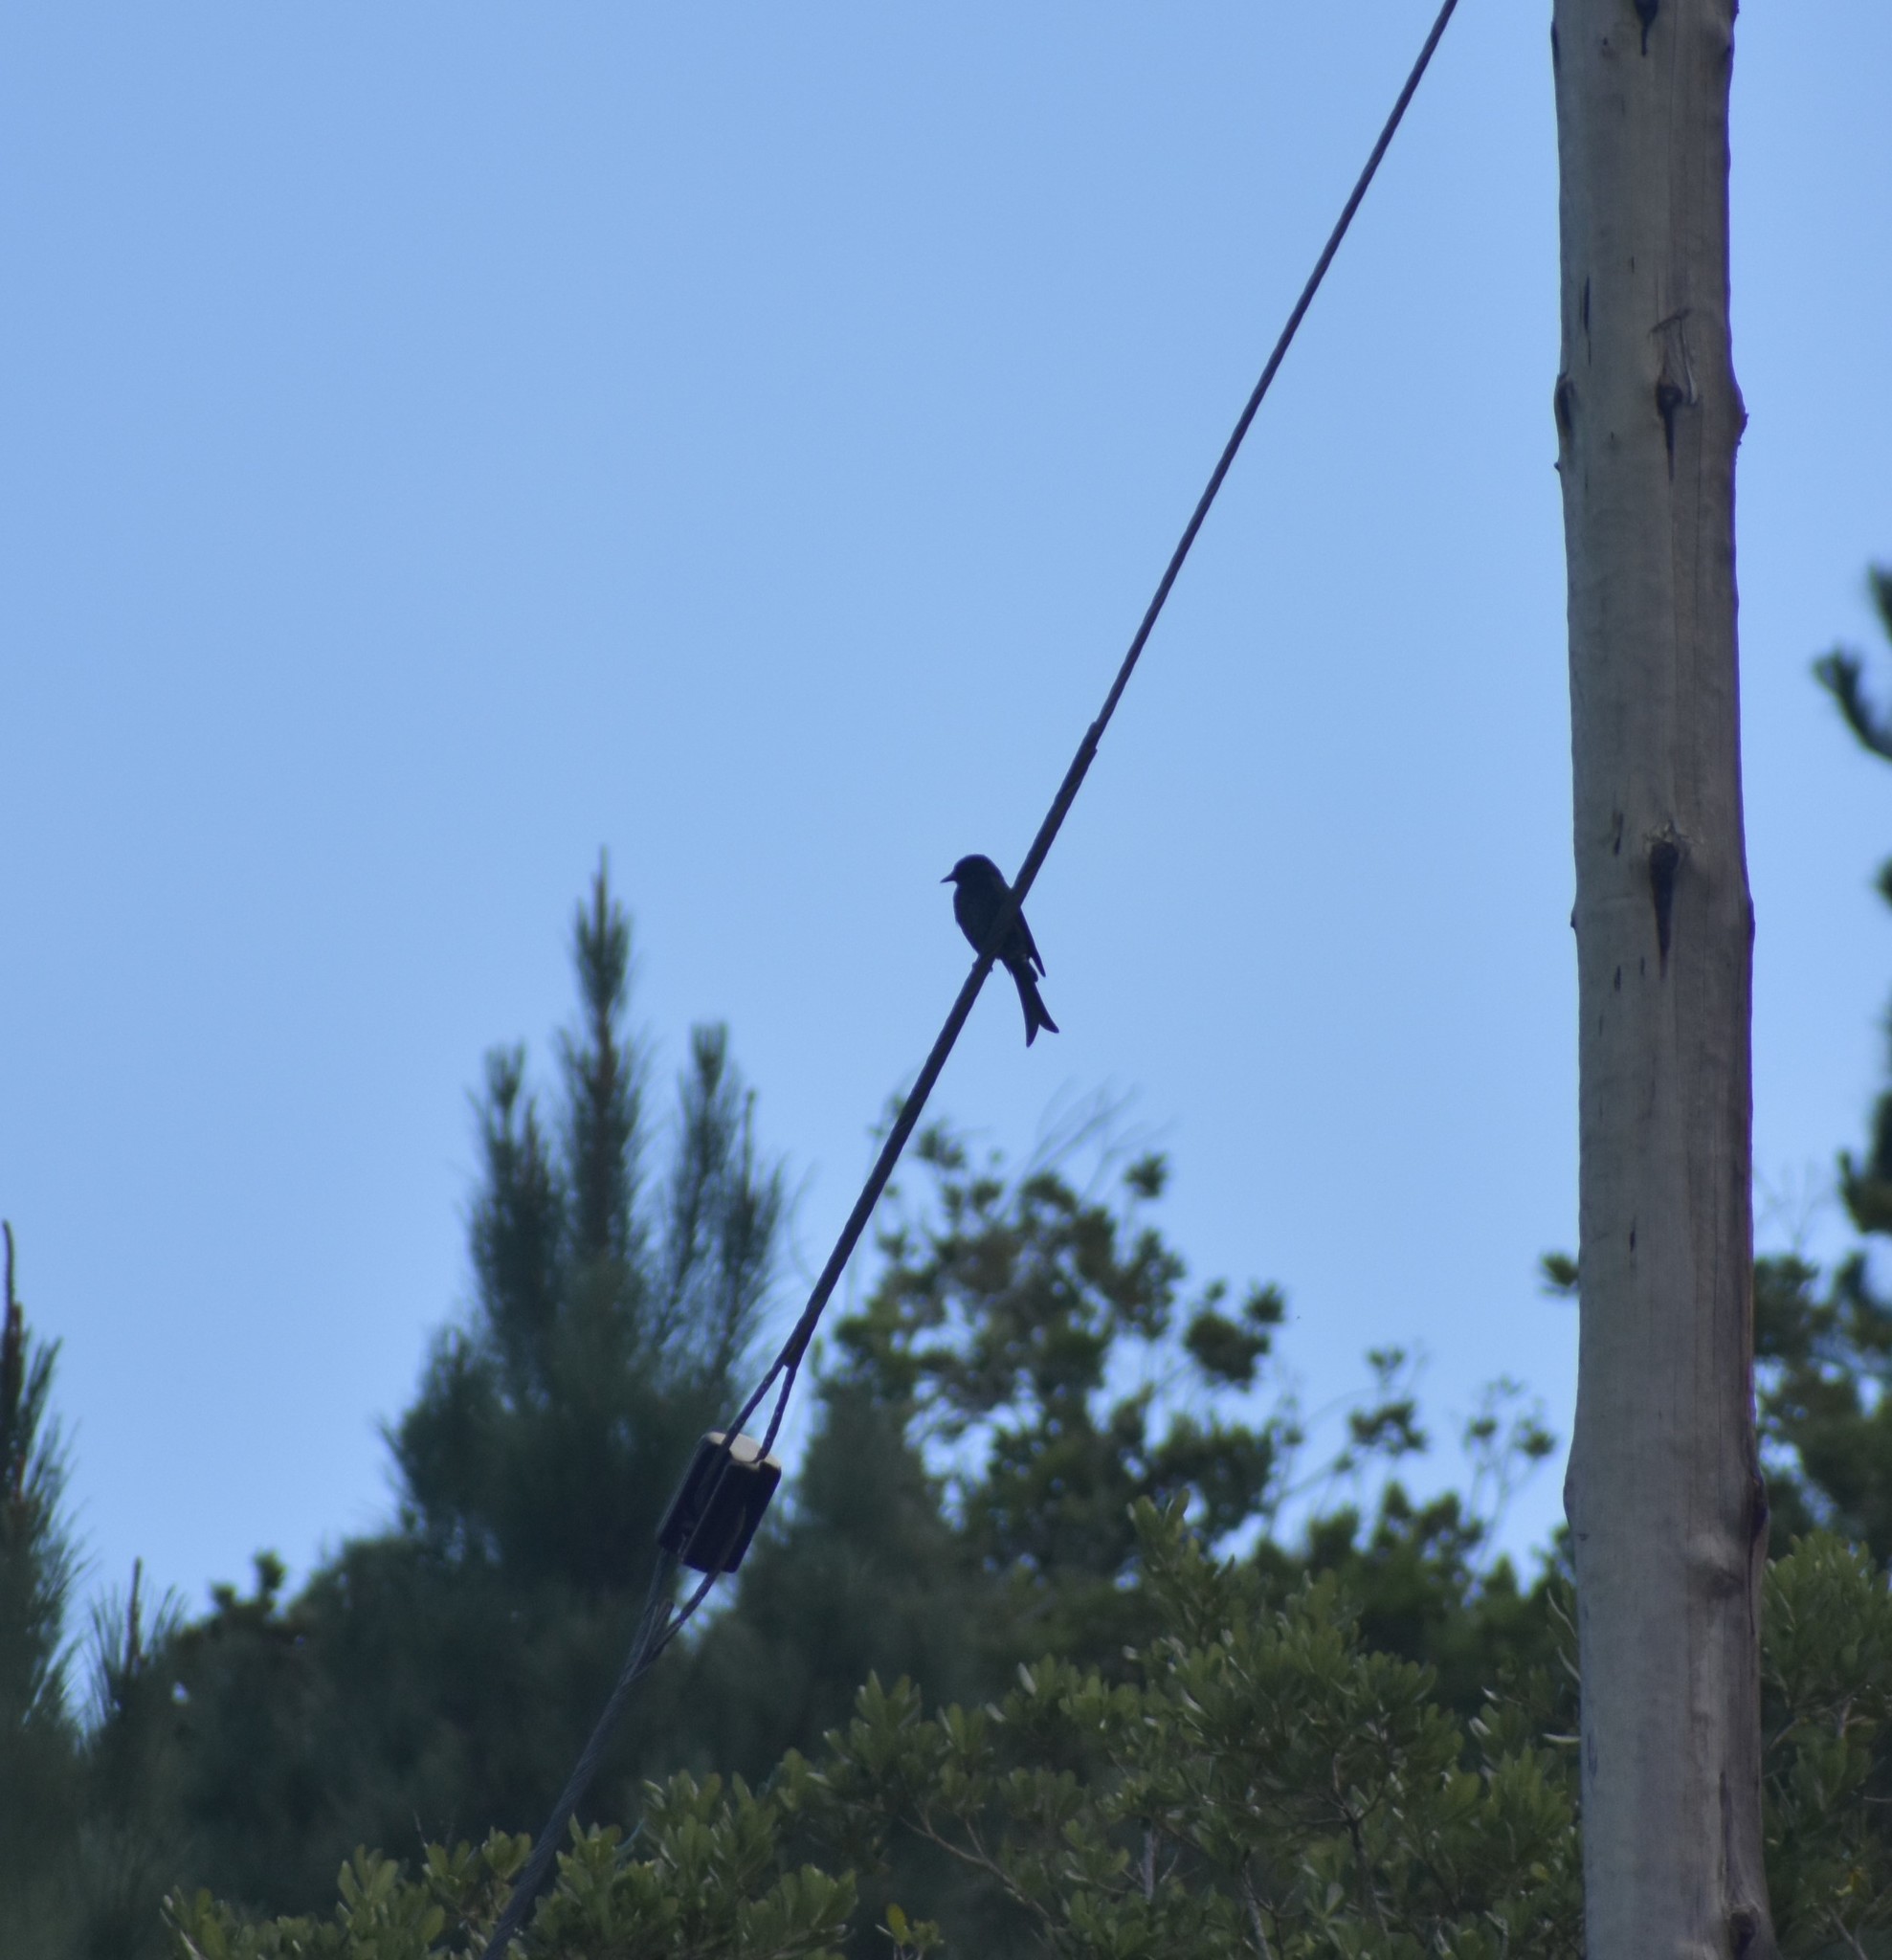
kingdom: Animalia
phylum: Chordata
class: Aves
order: Passeriformes
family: Dicruridae
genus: Dicrurus
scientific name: Dicrurus adsimilis
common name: Fork-tailed drongo
